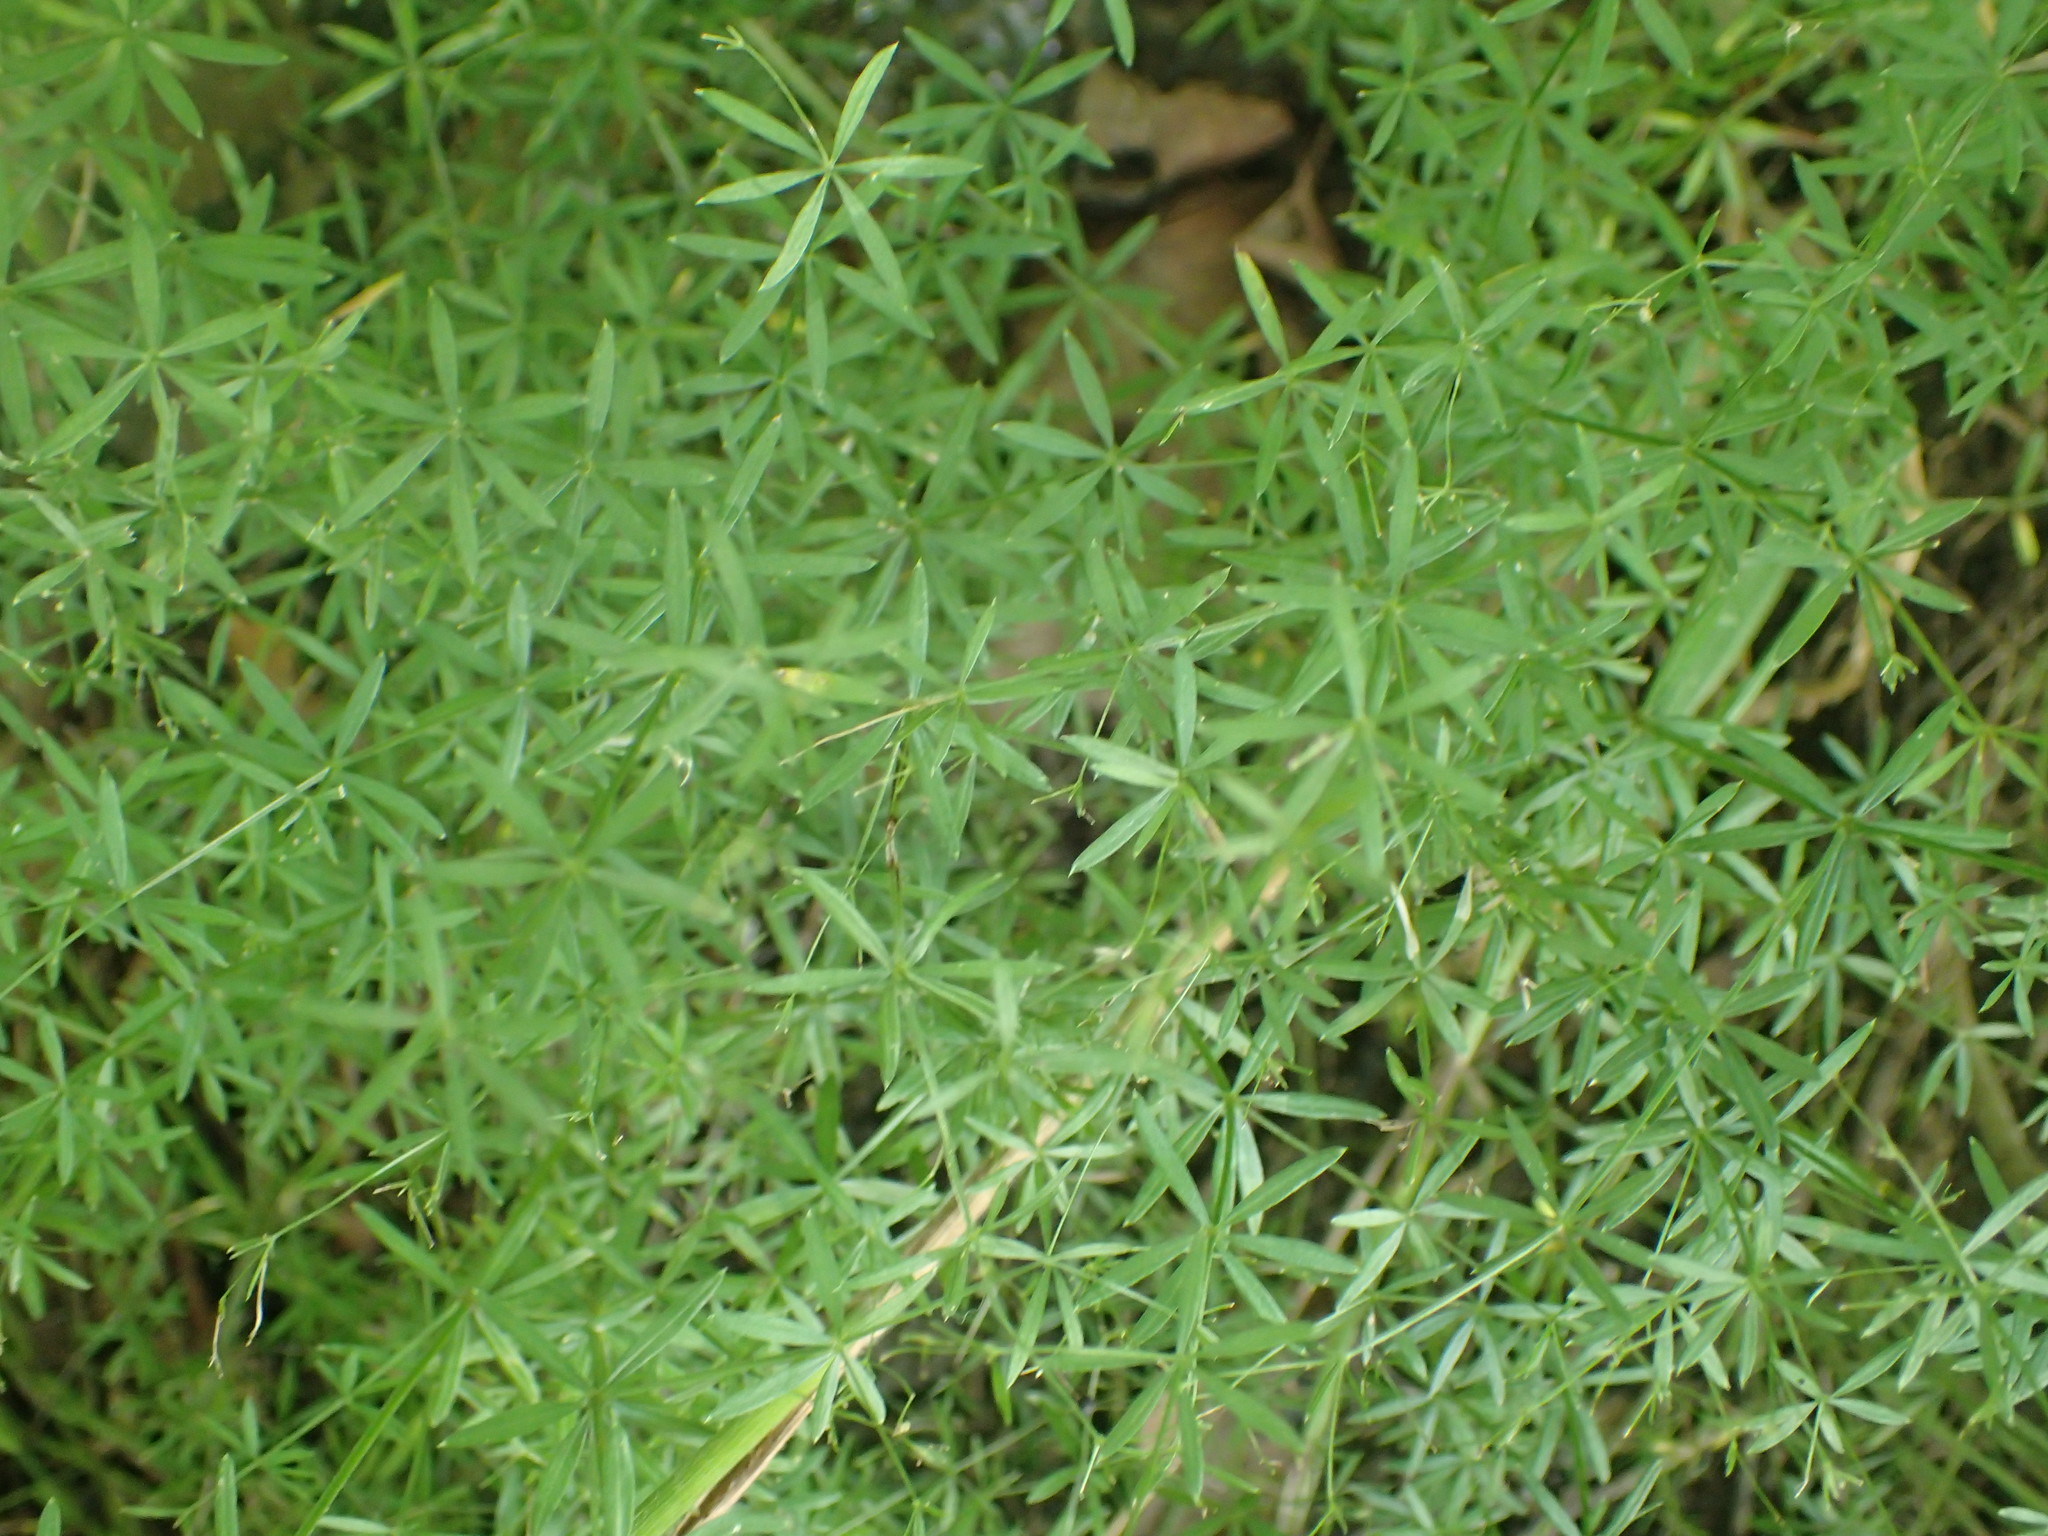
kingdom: Plantae
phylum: Tracheophyta
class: Magnoliopsida
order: Gentianales
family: Rubiaceae
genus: Galium
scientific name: Galium concinnum
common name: Shining bedstraw
